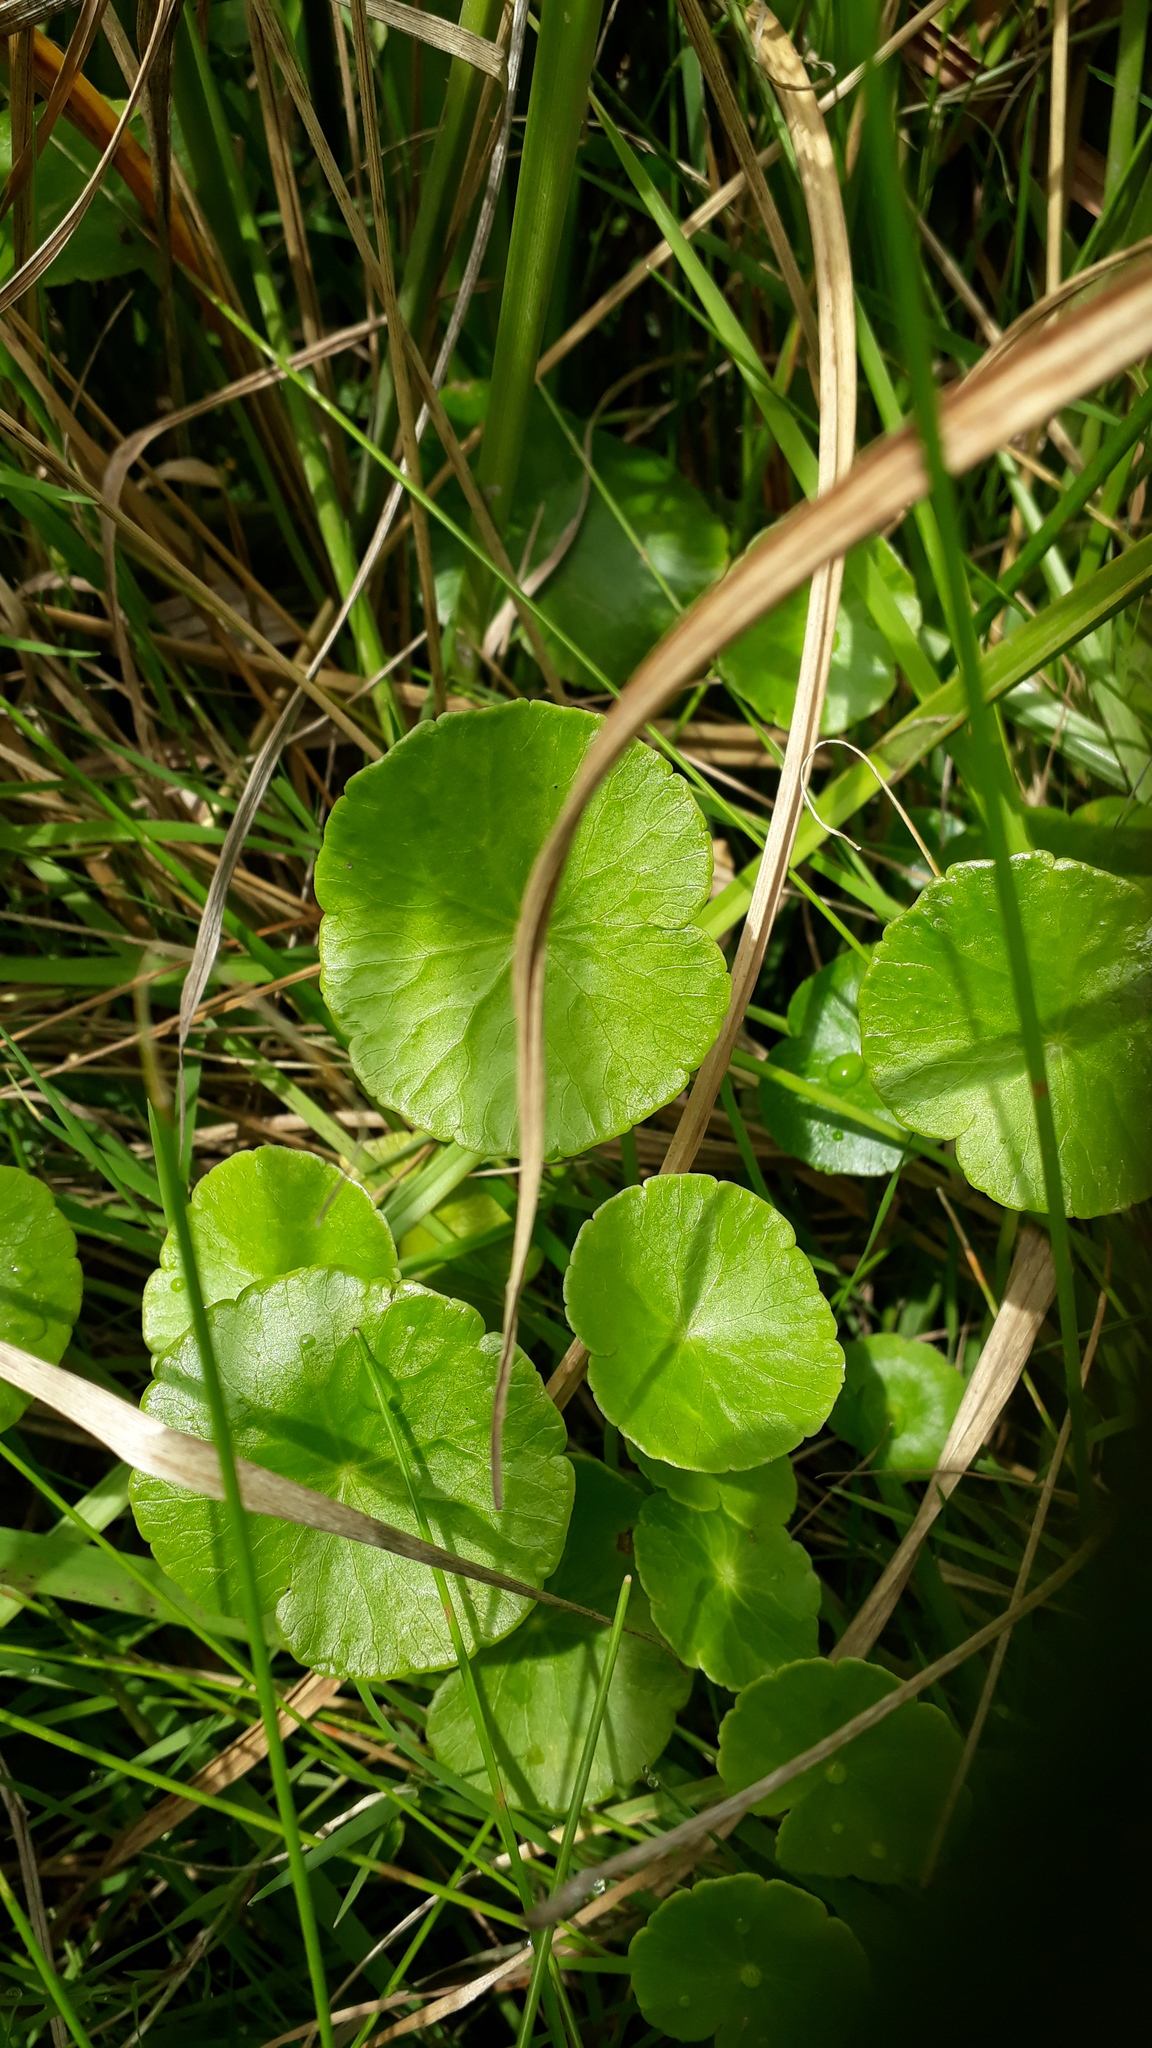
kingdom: Plantae
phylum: Tracheophyta
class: Magnoliopsida
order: Apiales
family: Araliaceae
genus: Hydrocotyle
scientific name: Hydrocotyle bonariensis
